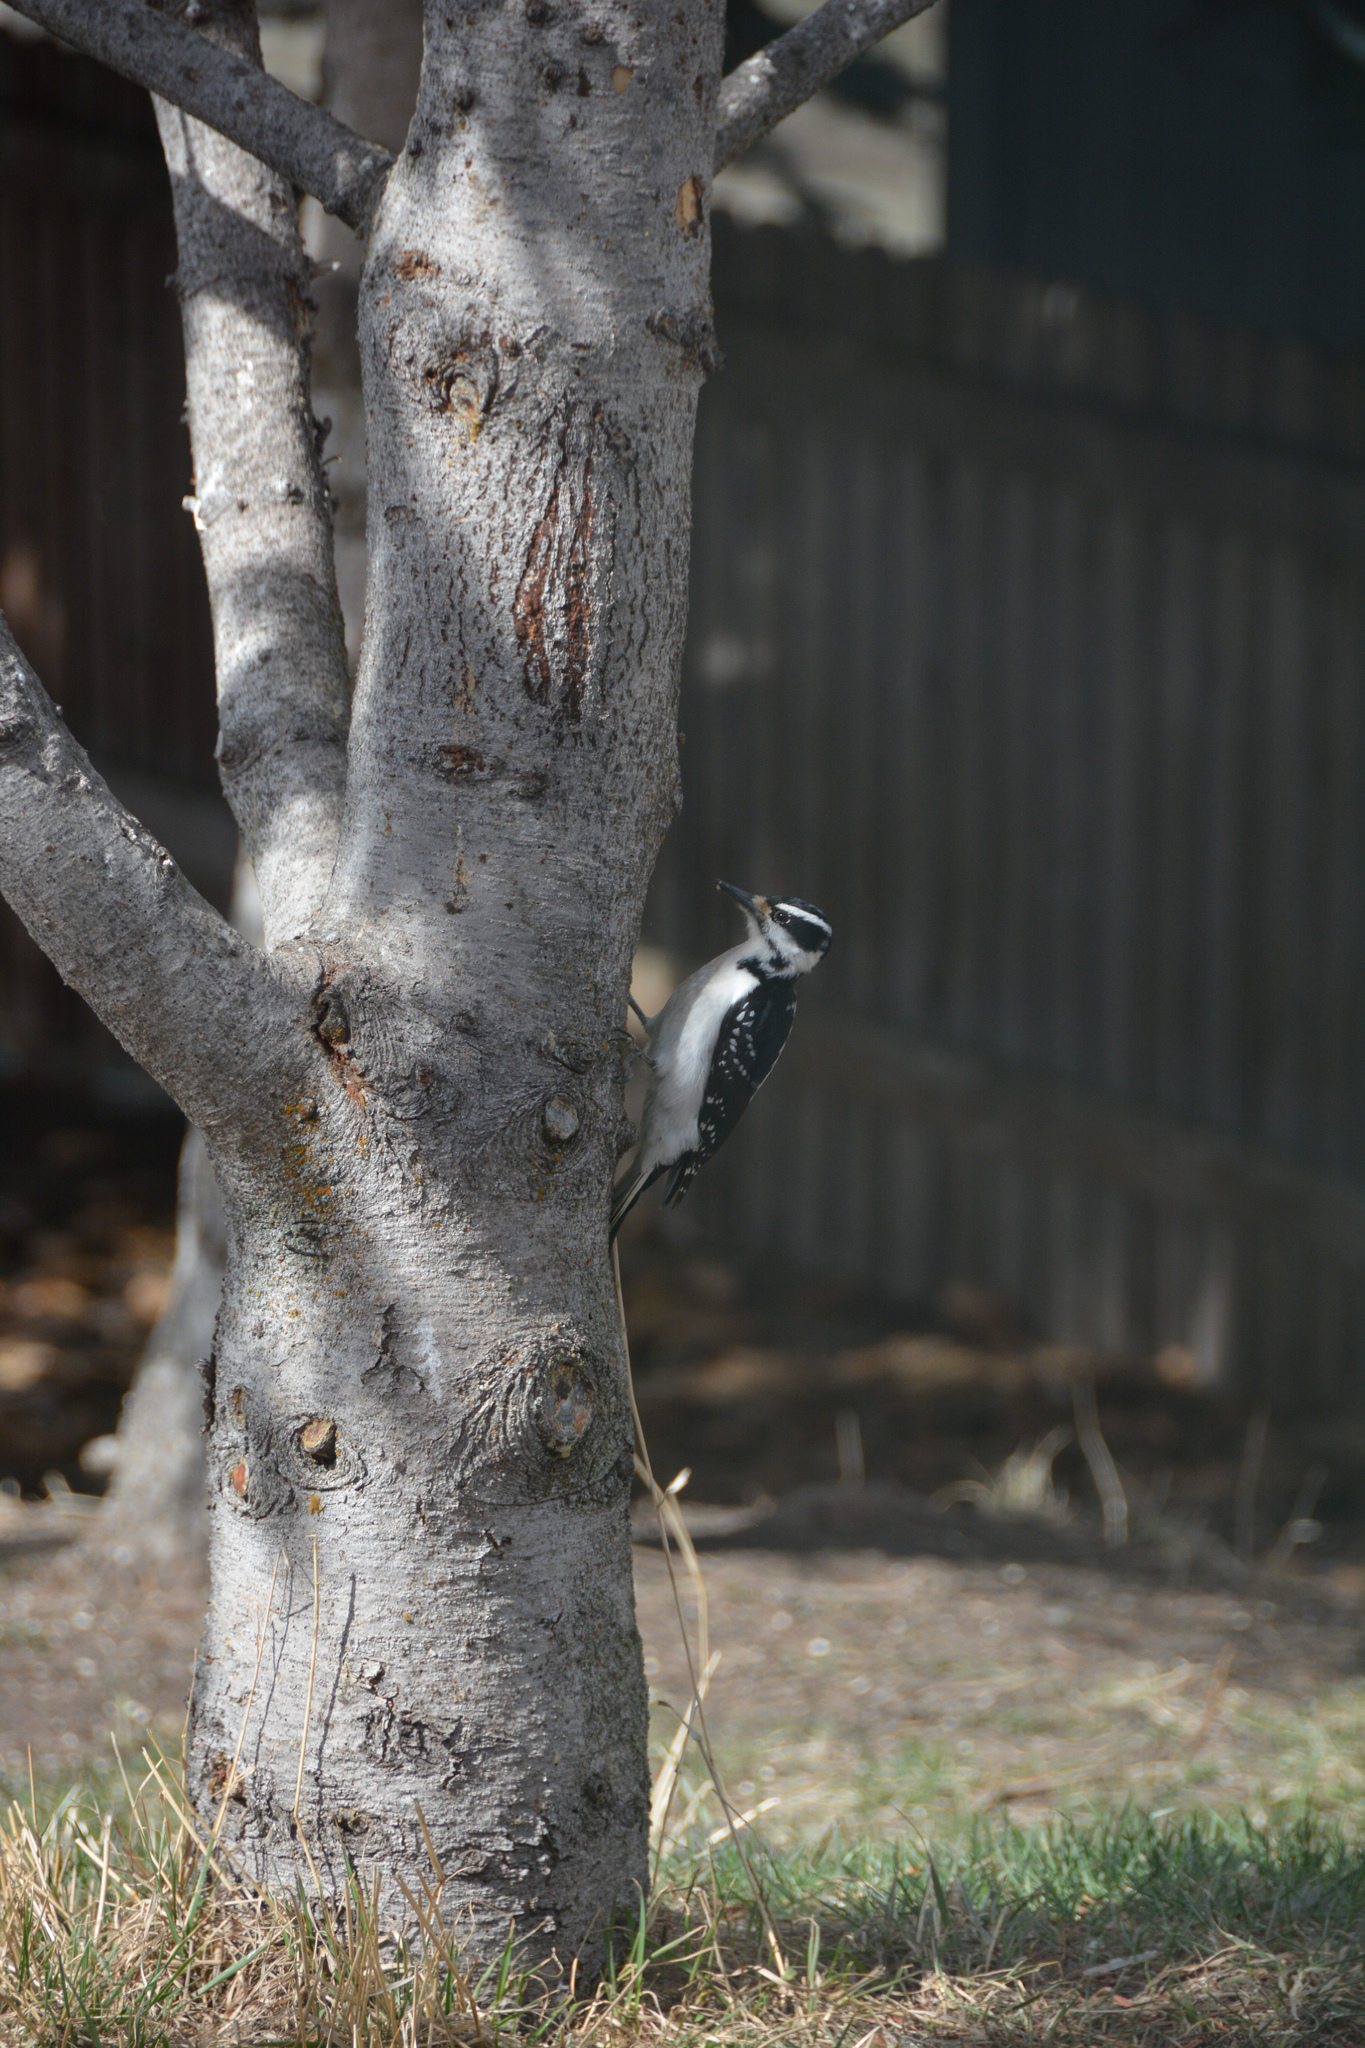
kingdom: Animalia
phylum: Chordata
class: Aves
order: Piciformes
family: Picidae
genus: Leuconotopicus
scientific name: Leuconotopicus villosus
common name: Hairy woodpecker
